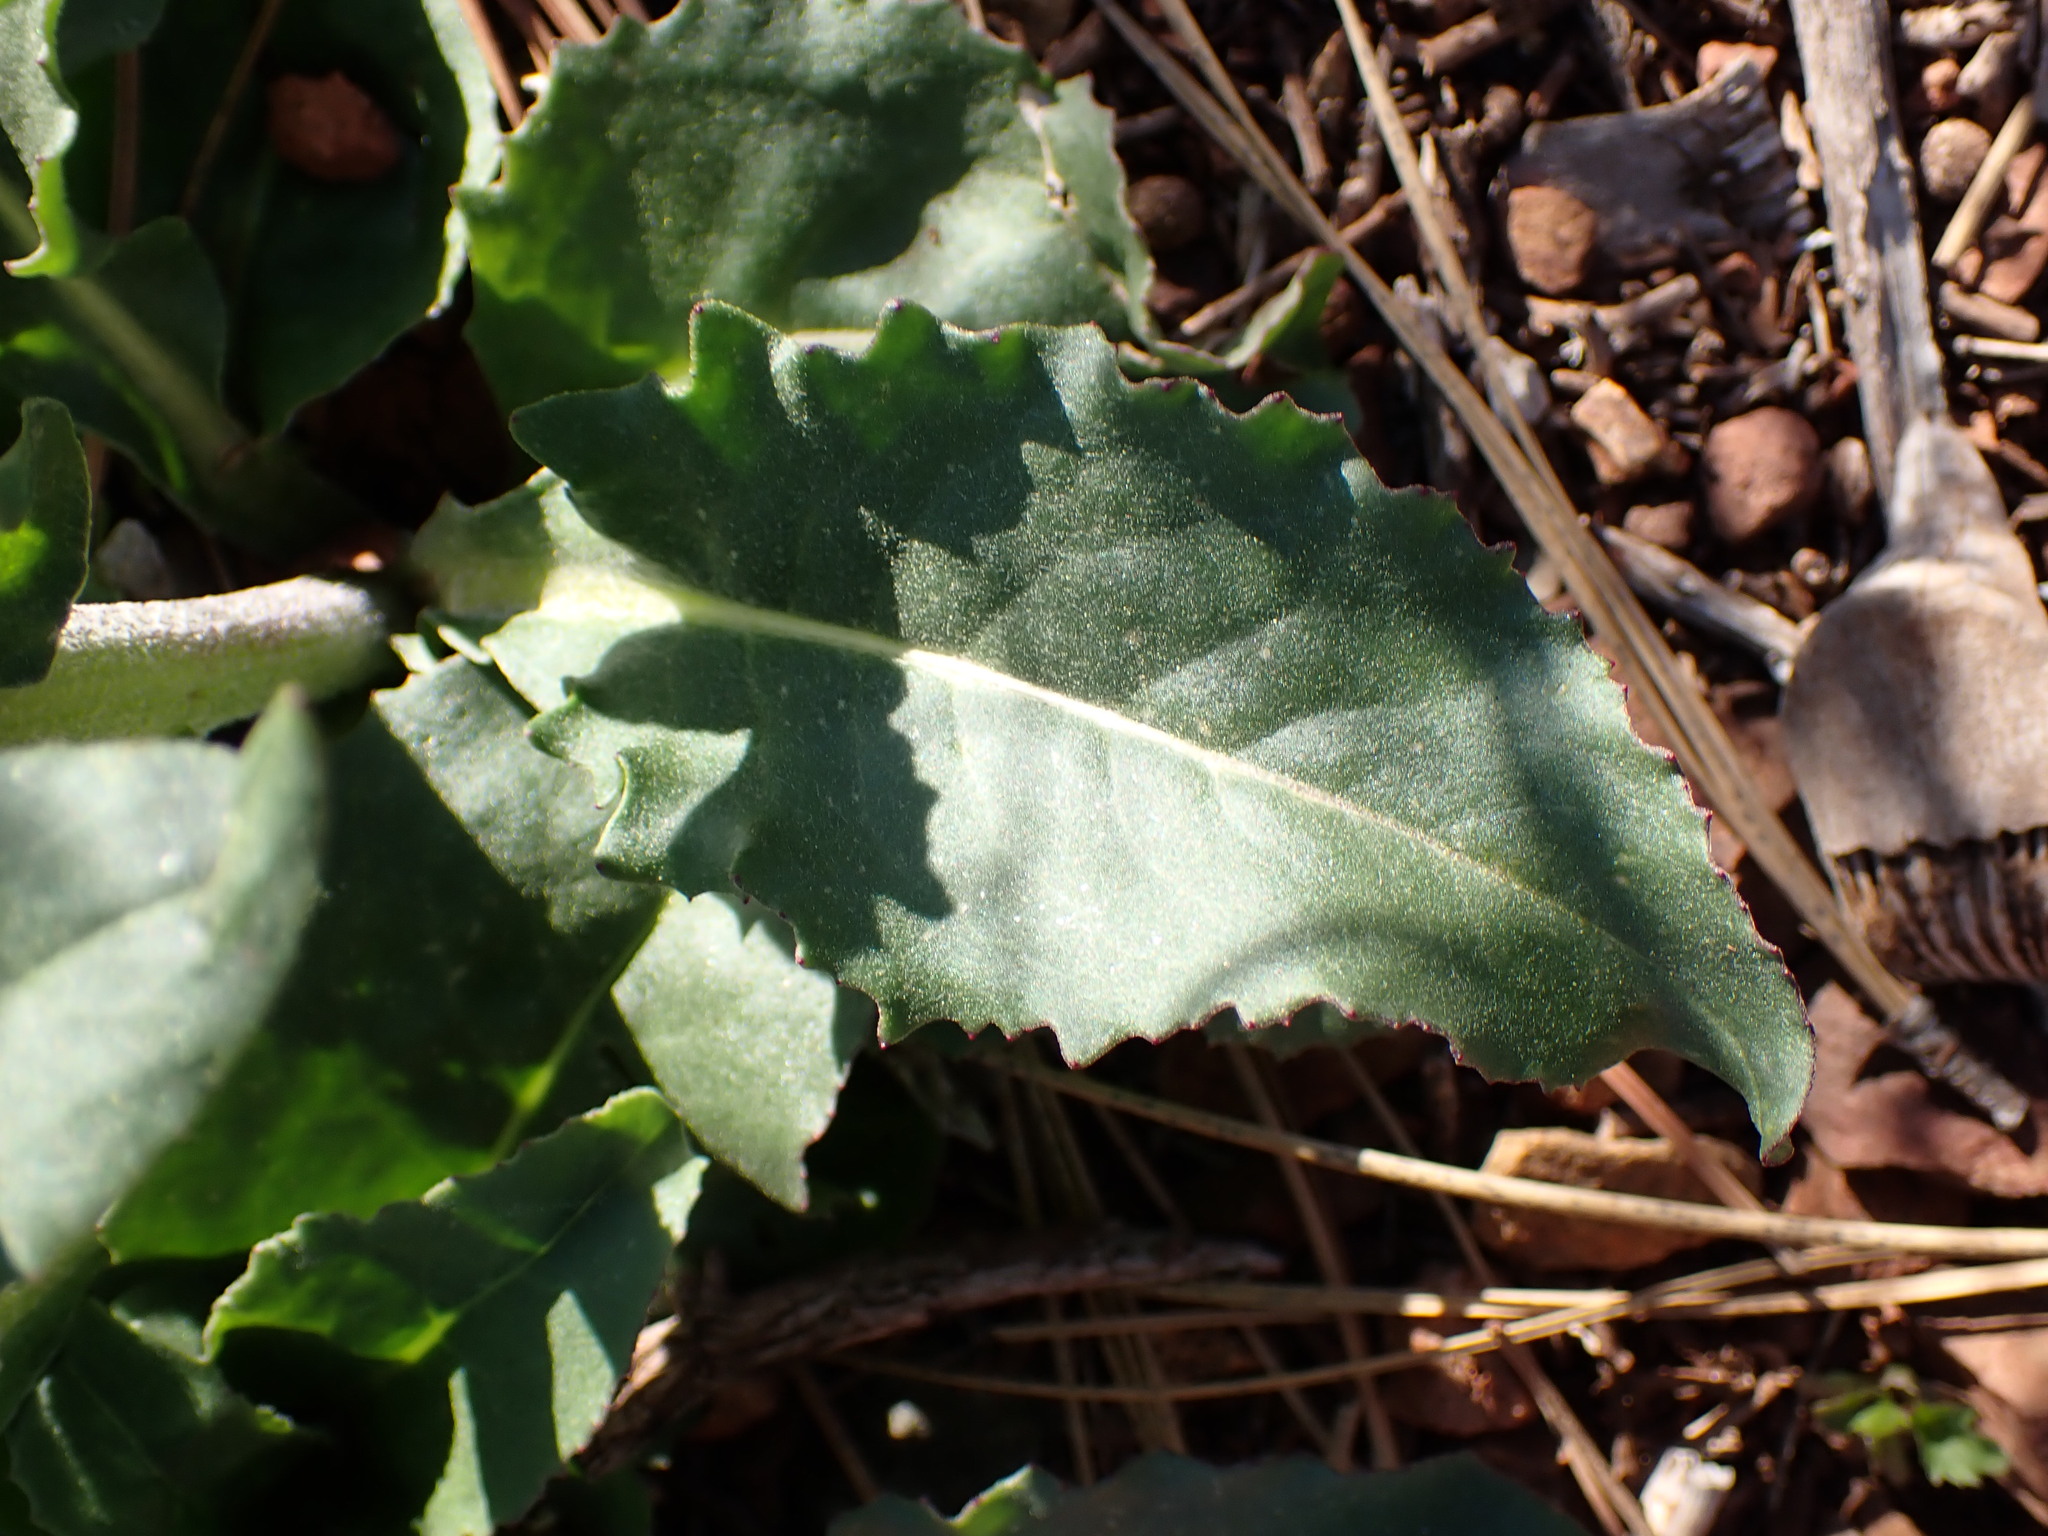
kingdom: Plantae
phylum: Tracheophyta
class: Magnoliopsida
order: Asterales
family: Asteraceae
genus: Senecio
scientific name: Senecio aronicoides
